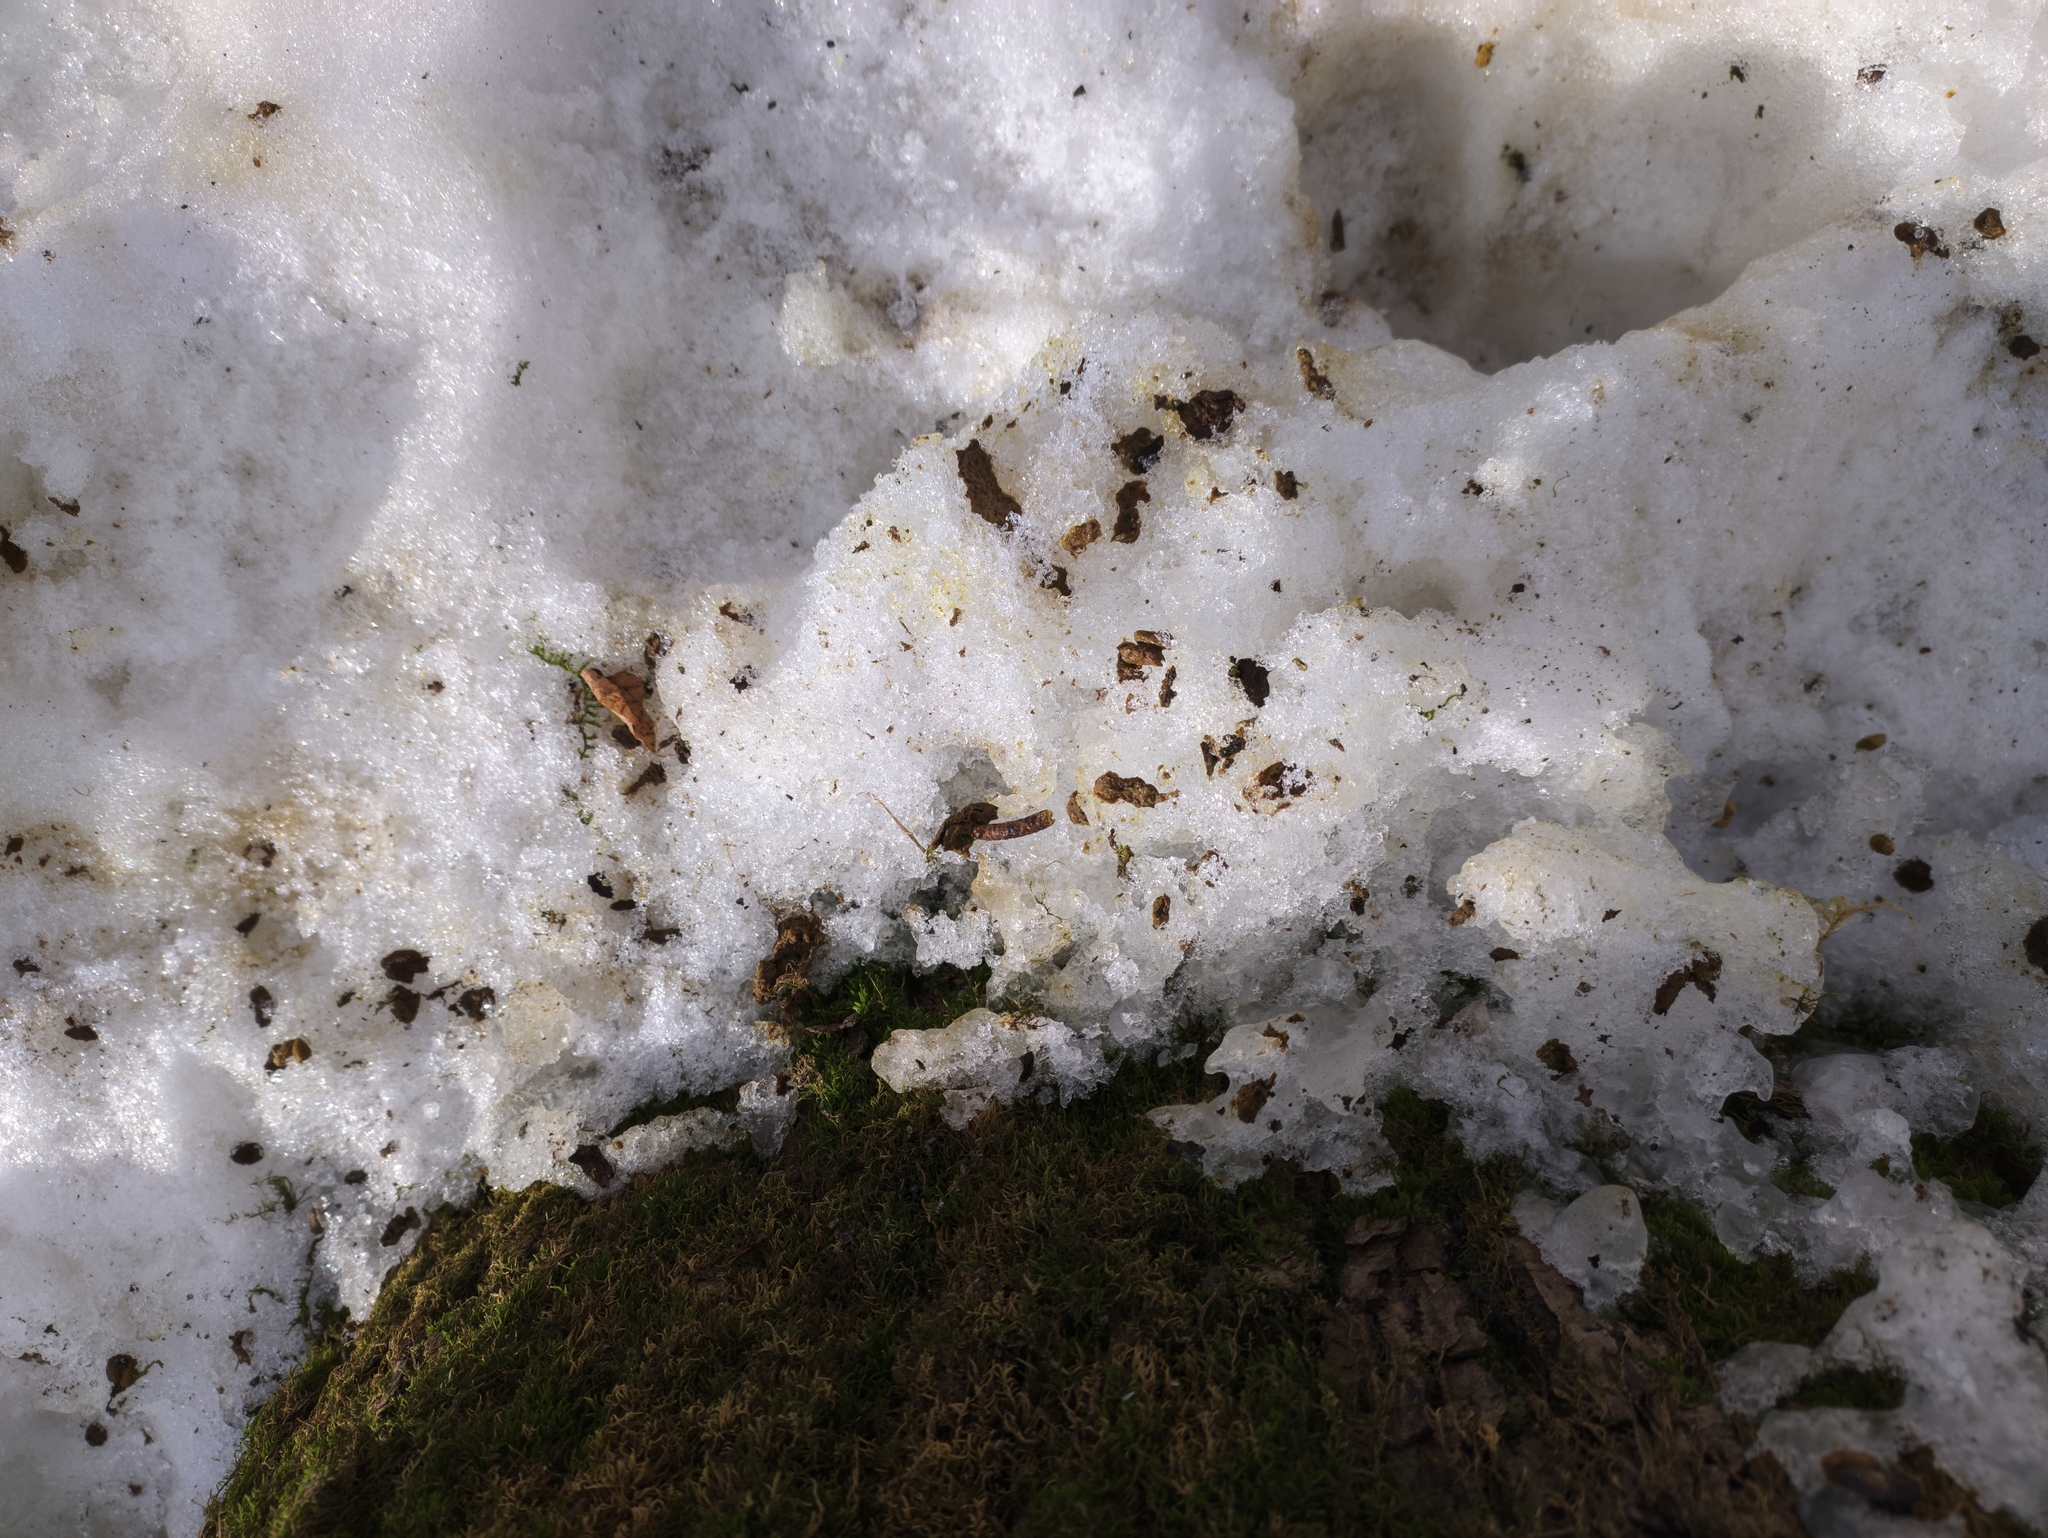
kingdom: Animalia
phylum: Chordata
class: Mammalia
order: Rodentia
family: Sciuridae
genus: Pteromys
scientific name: Pteromys volans
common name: Siberian flying squirrel
